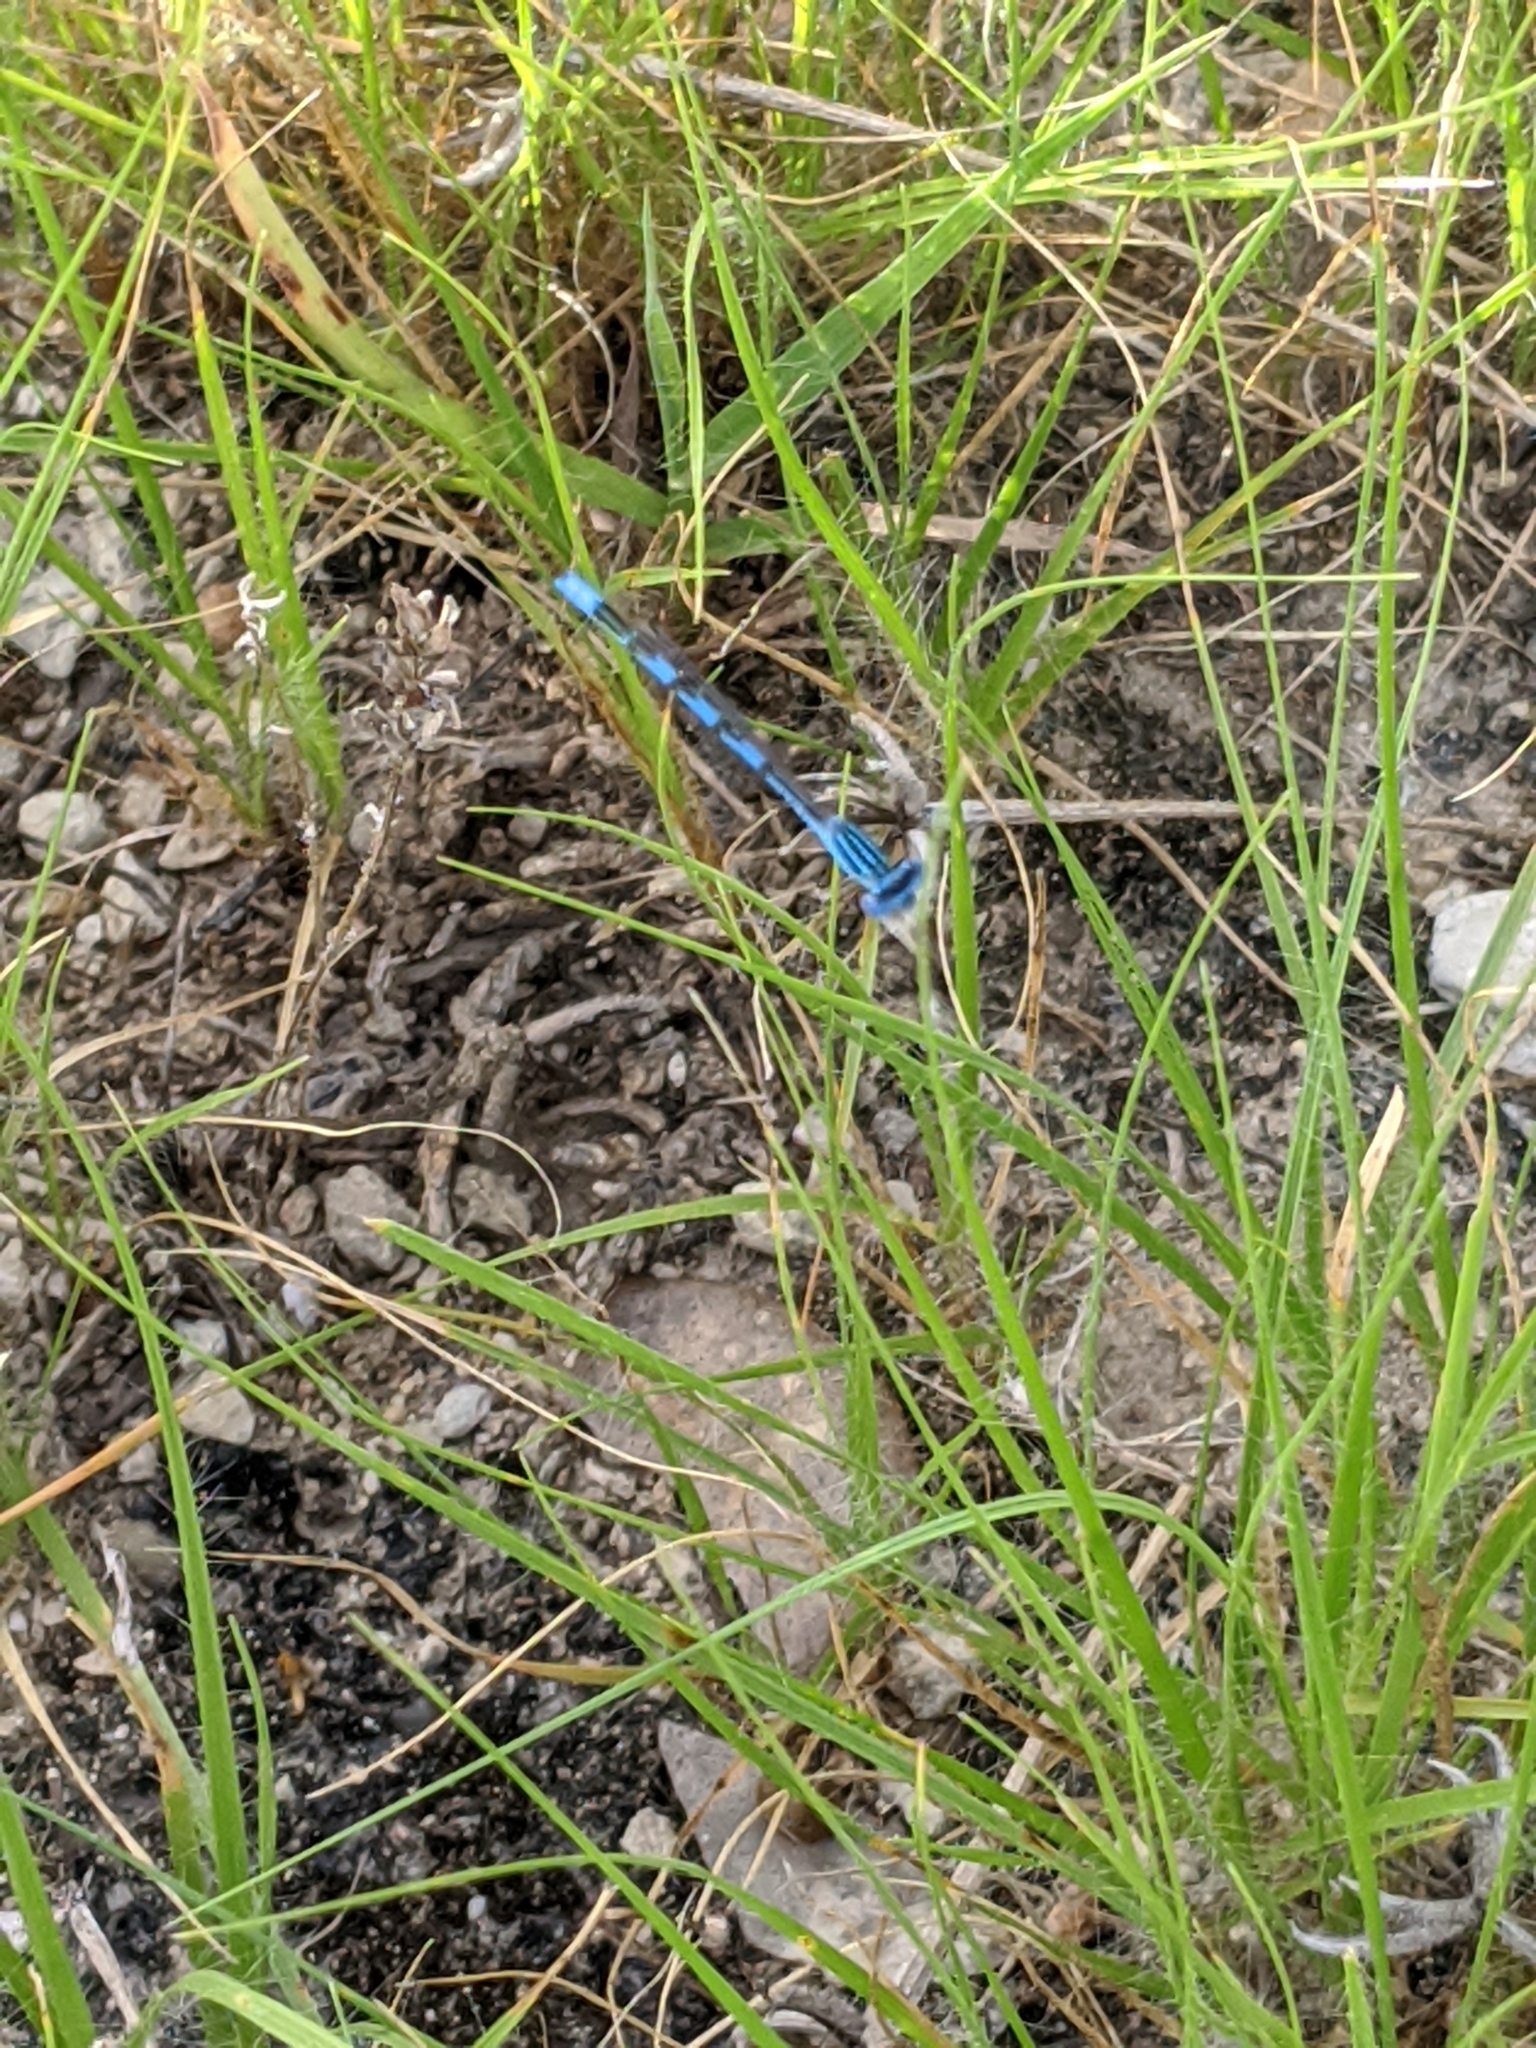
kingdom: Animalia
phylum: Arthropoda
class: Insecta
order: Odonata
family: Coenagrionidae
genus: Enallagma
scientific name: Enallagma basidens
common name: Double-striped bluet
